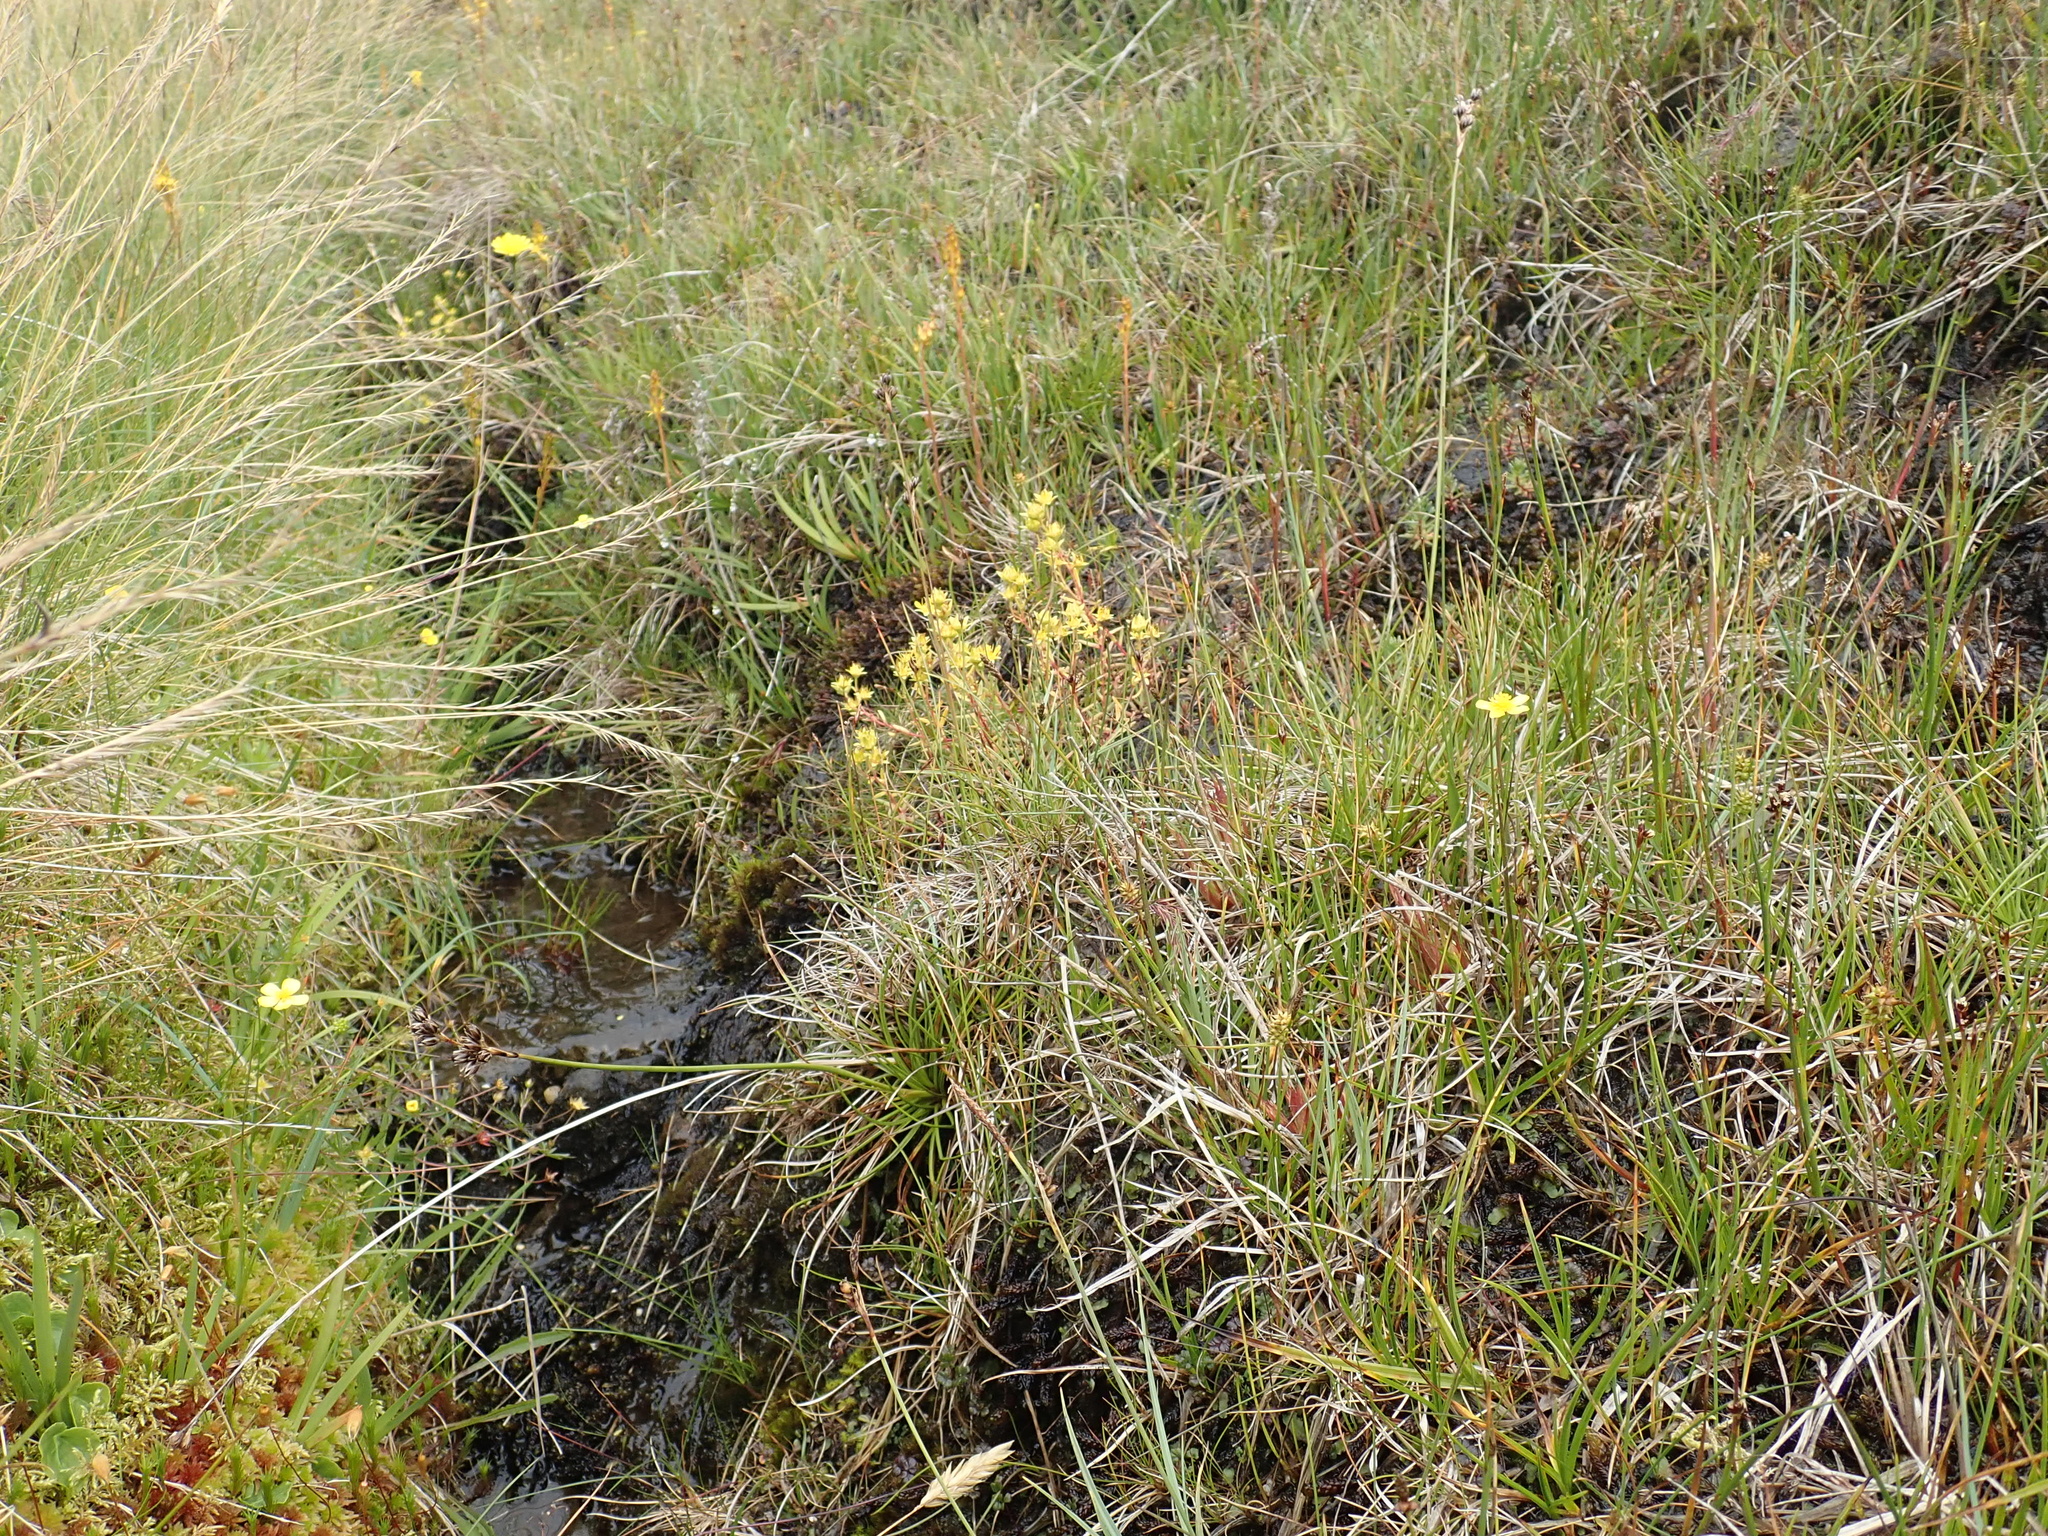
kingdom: Plantae
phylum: Tracheophyta
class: Magnoliopsida
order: Saxifragales
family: Saxifragaceae
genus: Saxifraga
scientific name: Saxifraga aizoides
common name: Yellow mountain saxifrage
